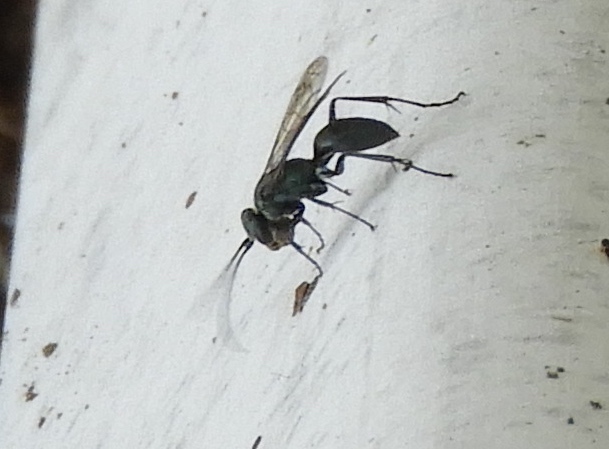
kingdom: Animalia
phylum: Arthropoda
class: Insecta
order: Hymenoptera
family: Pompilidae
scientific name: Pompilidae
